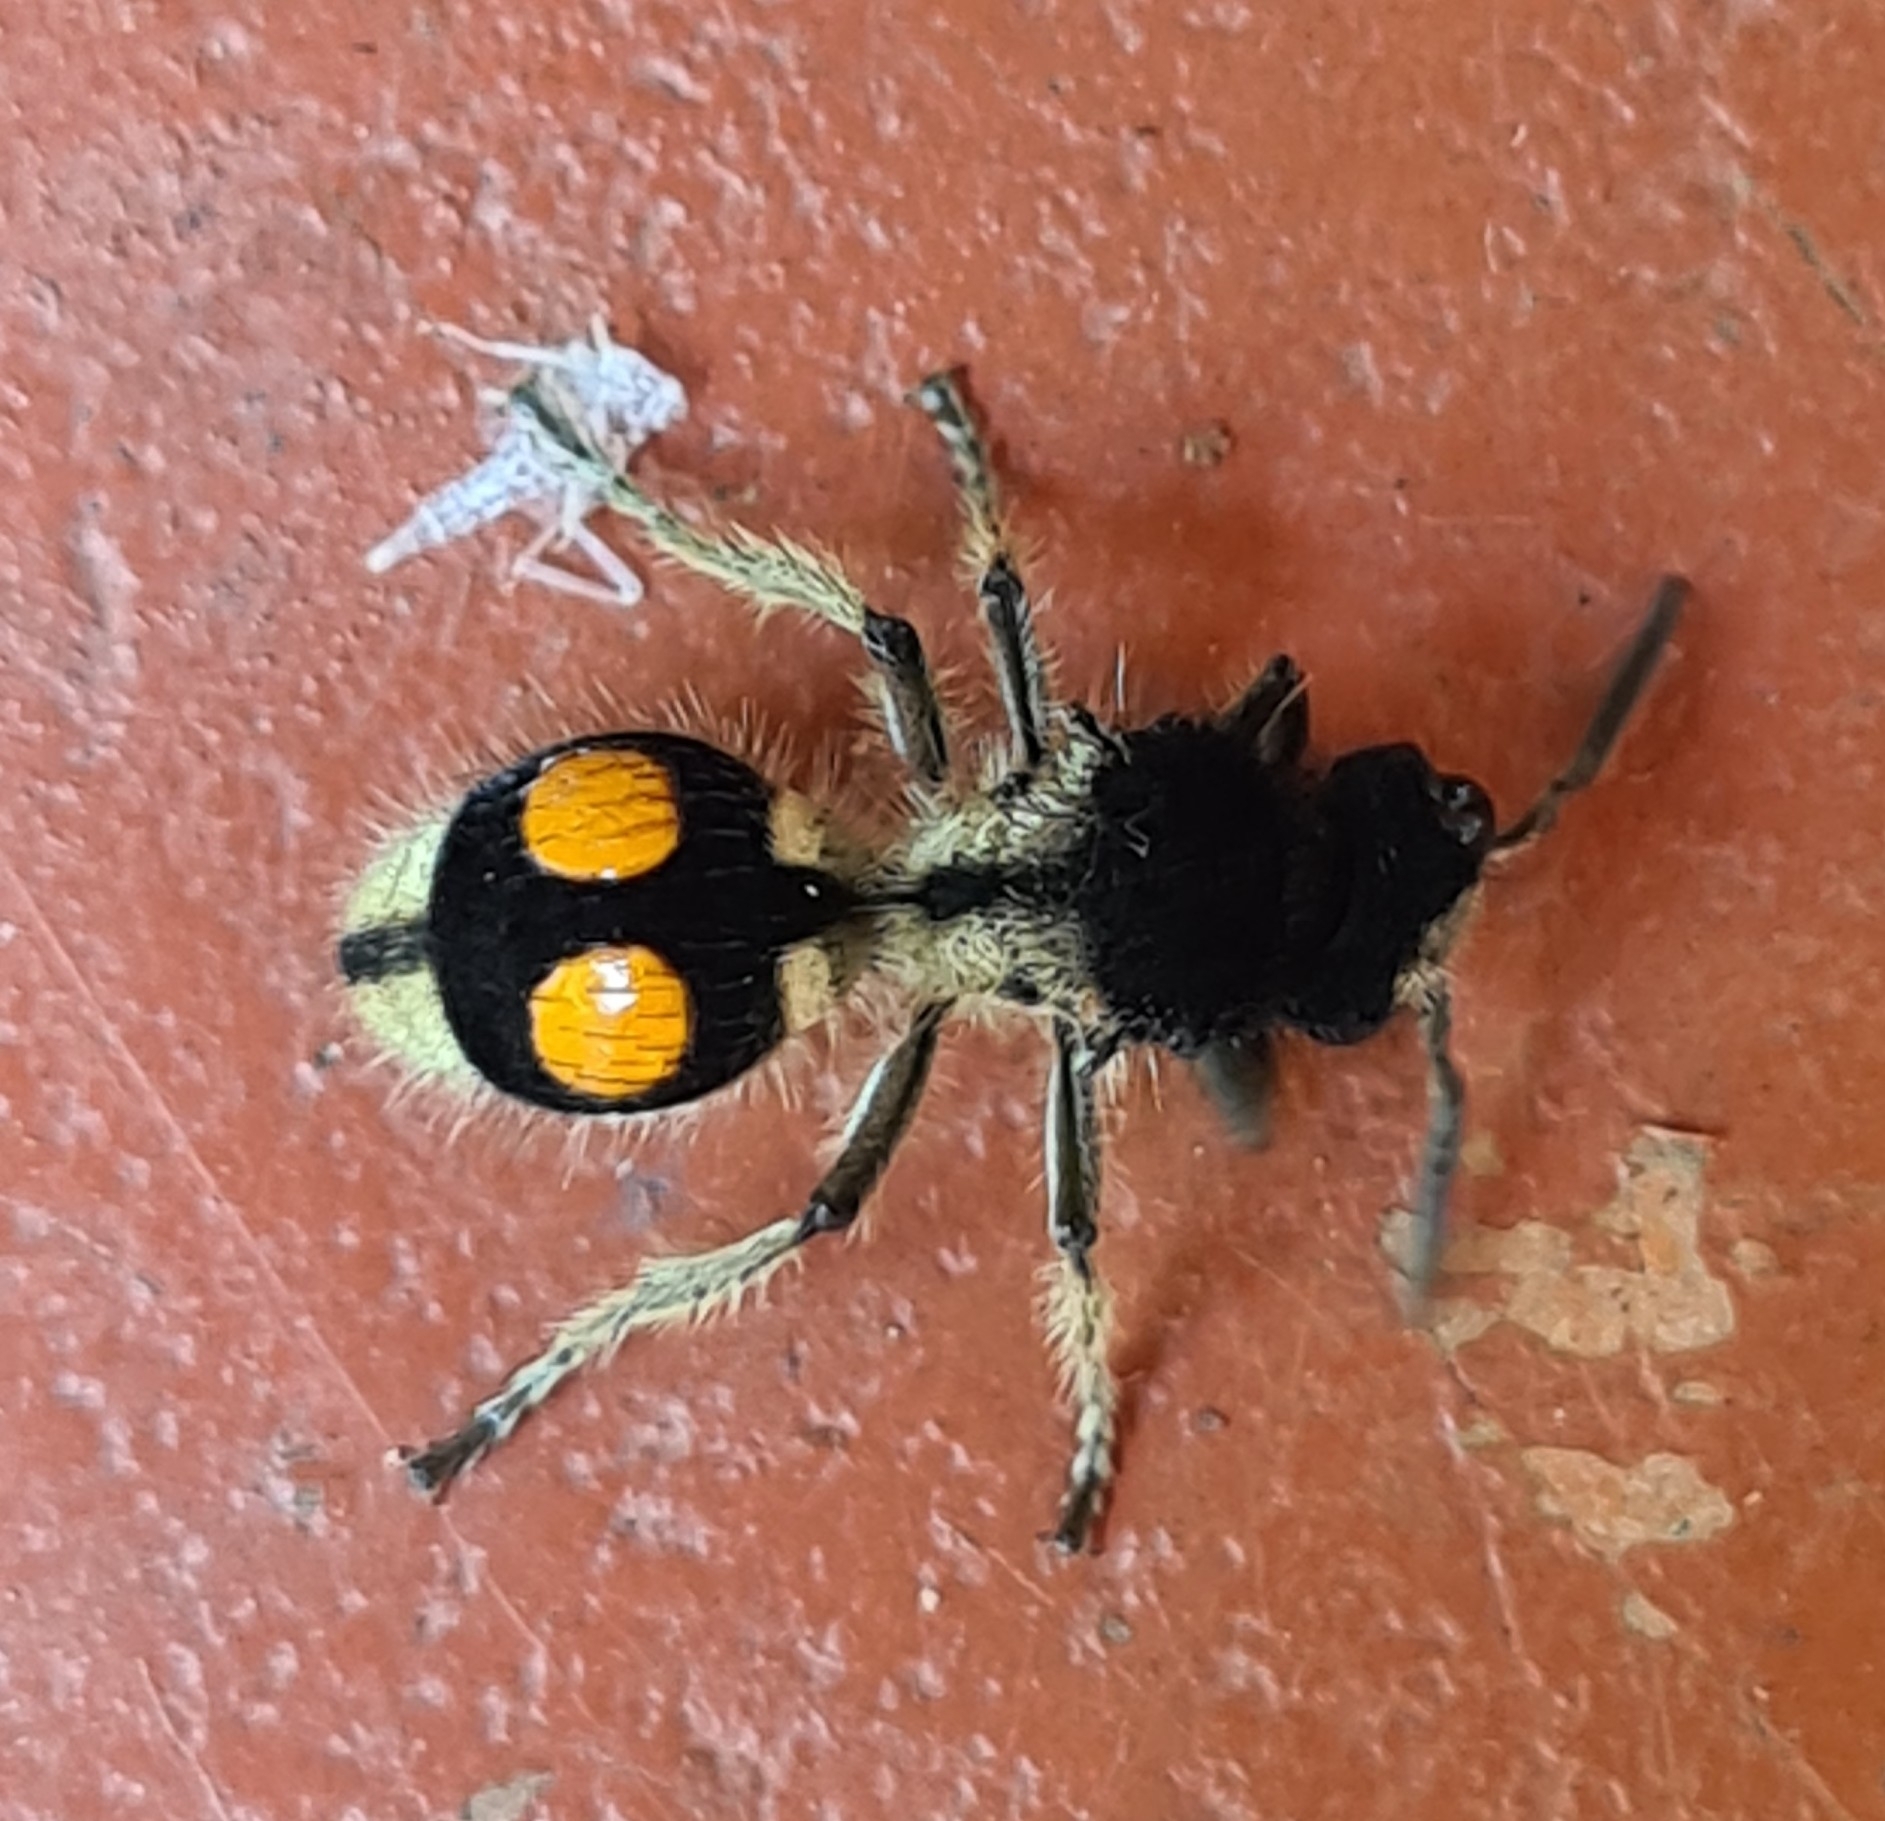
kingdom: Animalia
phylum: Arthropoda
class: Insecta
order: Hymenoptera
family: Mutillidae
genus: Hoplomutilla
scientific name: Hoplomutilla
